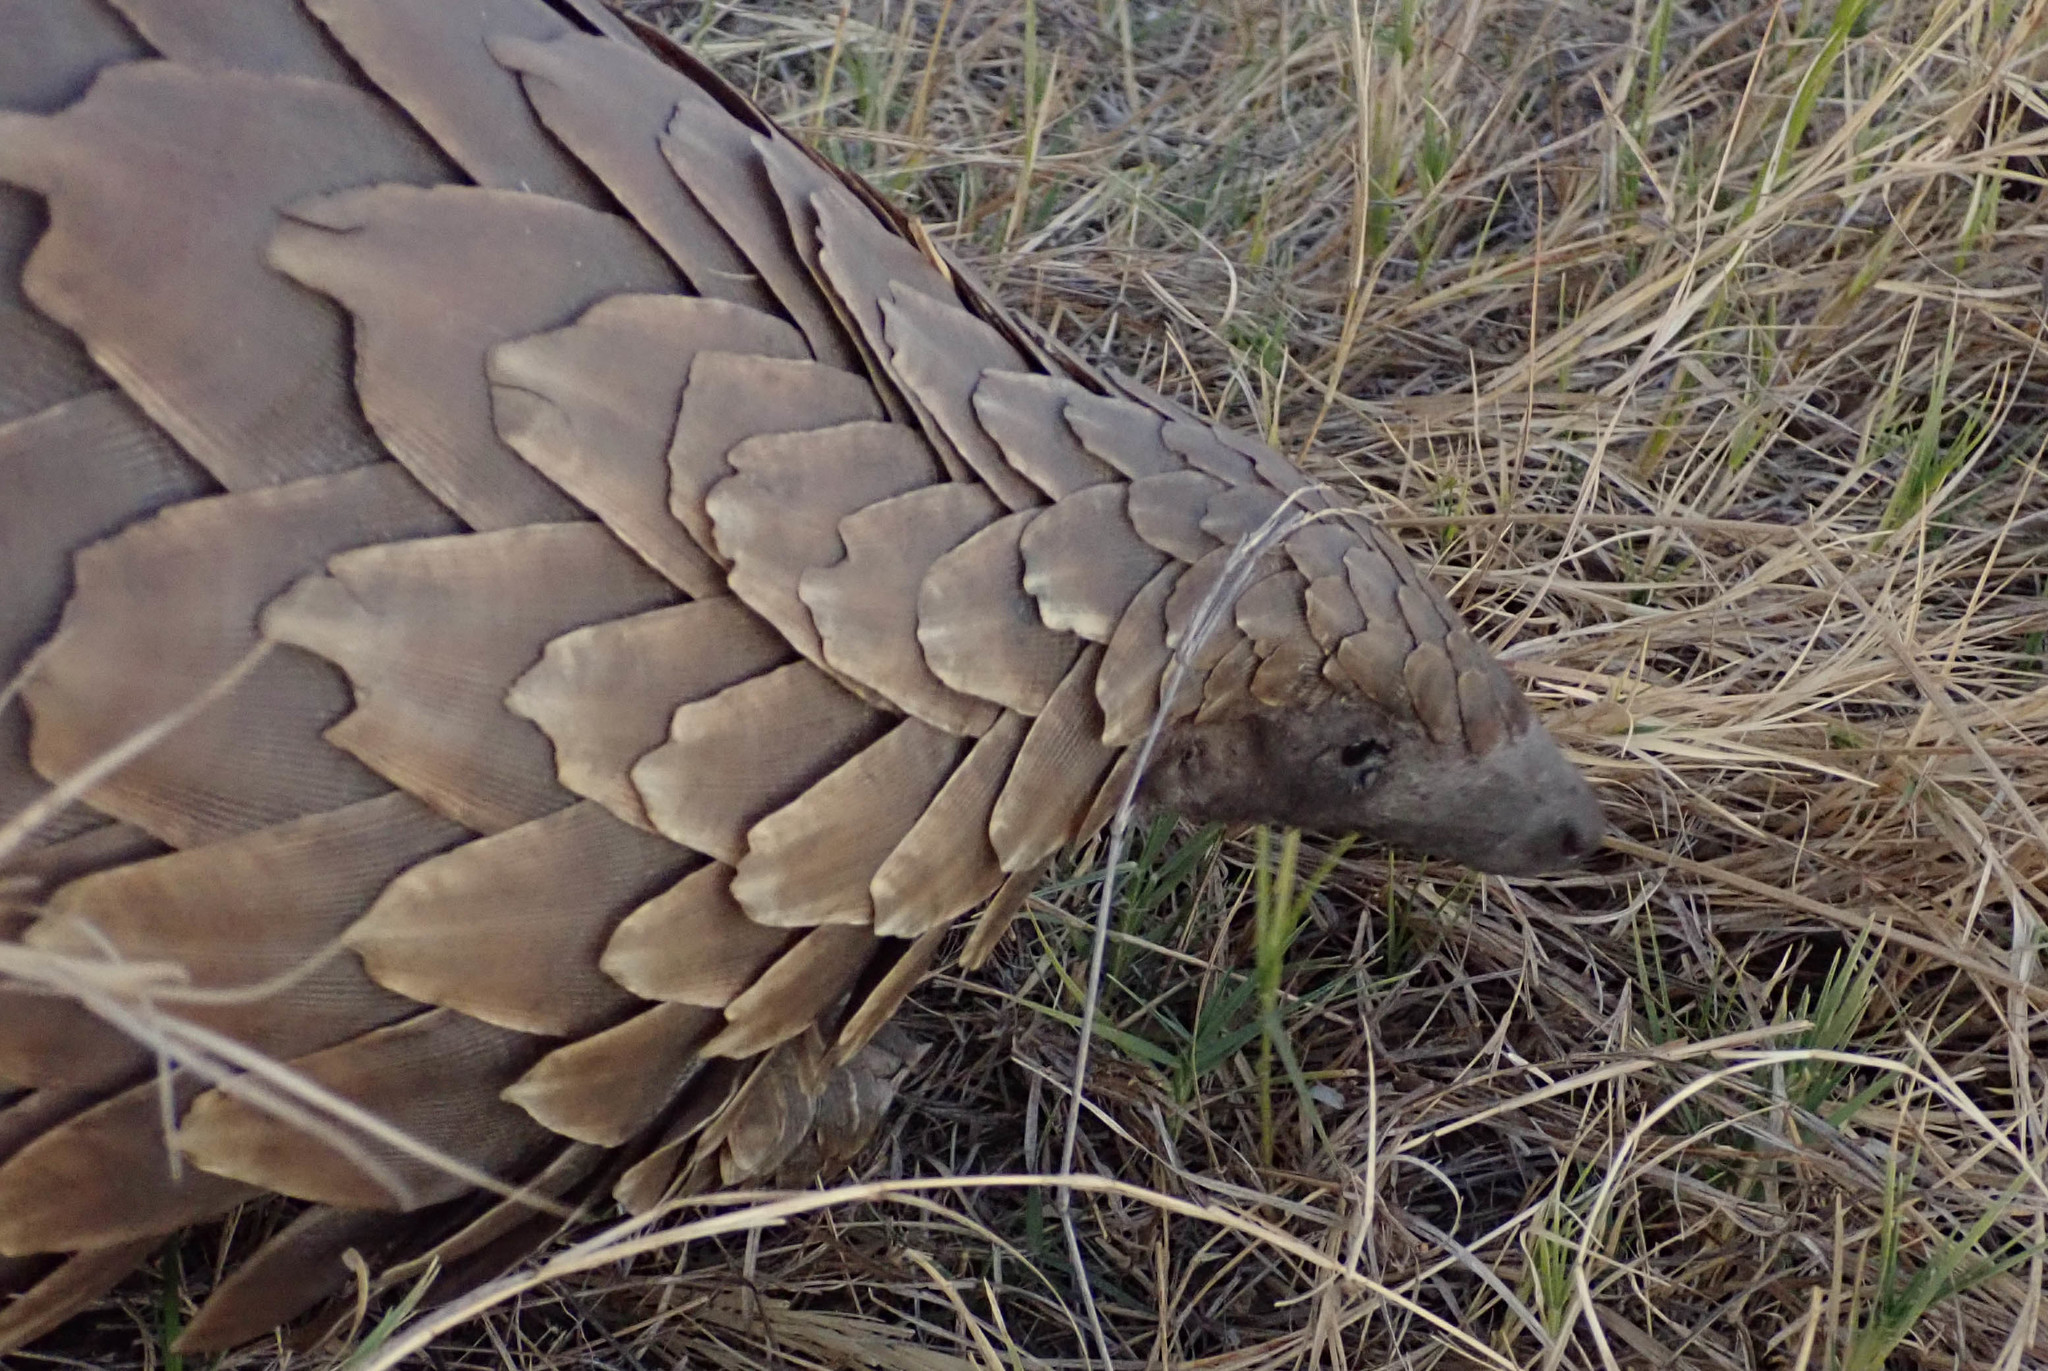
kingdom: Animalia
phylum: Chordata
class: Mammalia
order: Pholidota
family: Manidae
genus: Manis
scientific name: Manis temminckii
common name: Ground pangolin
